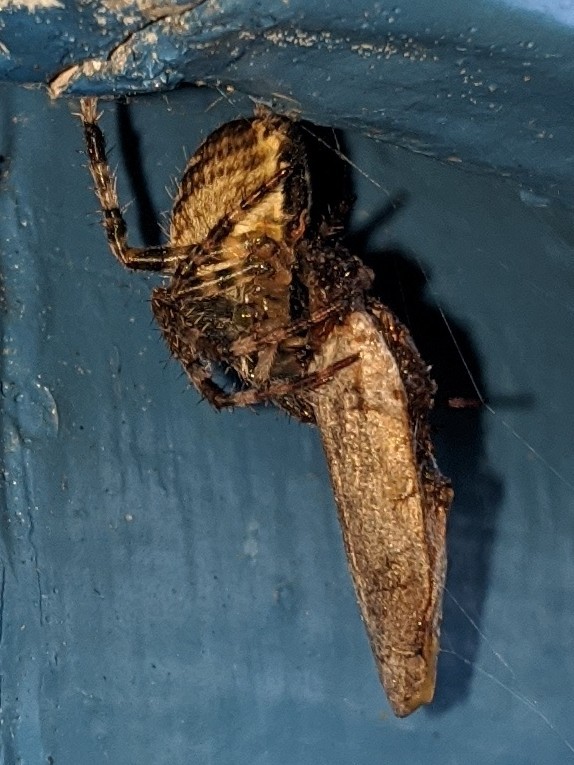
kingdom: Animalia
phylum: Arthropoda
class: Arachnida
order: Araneae
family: Araneidae
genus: Araneus
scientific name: Araneus diadematus
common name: Cross orbweaver
